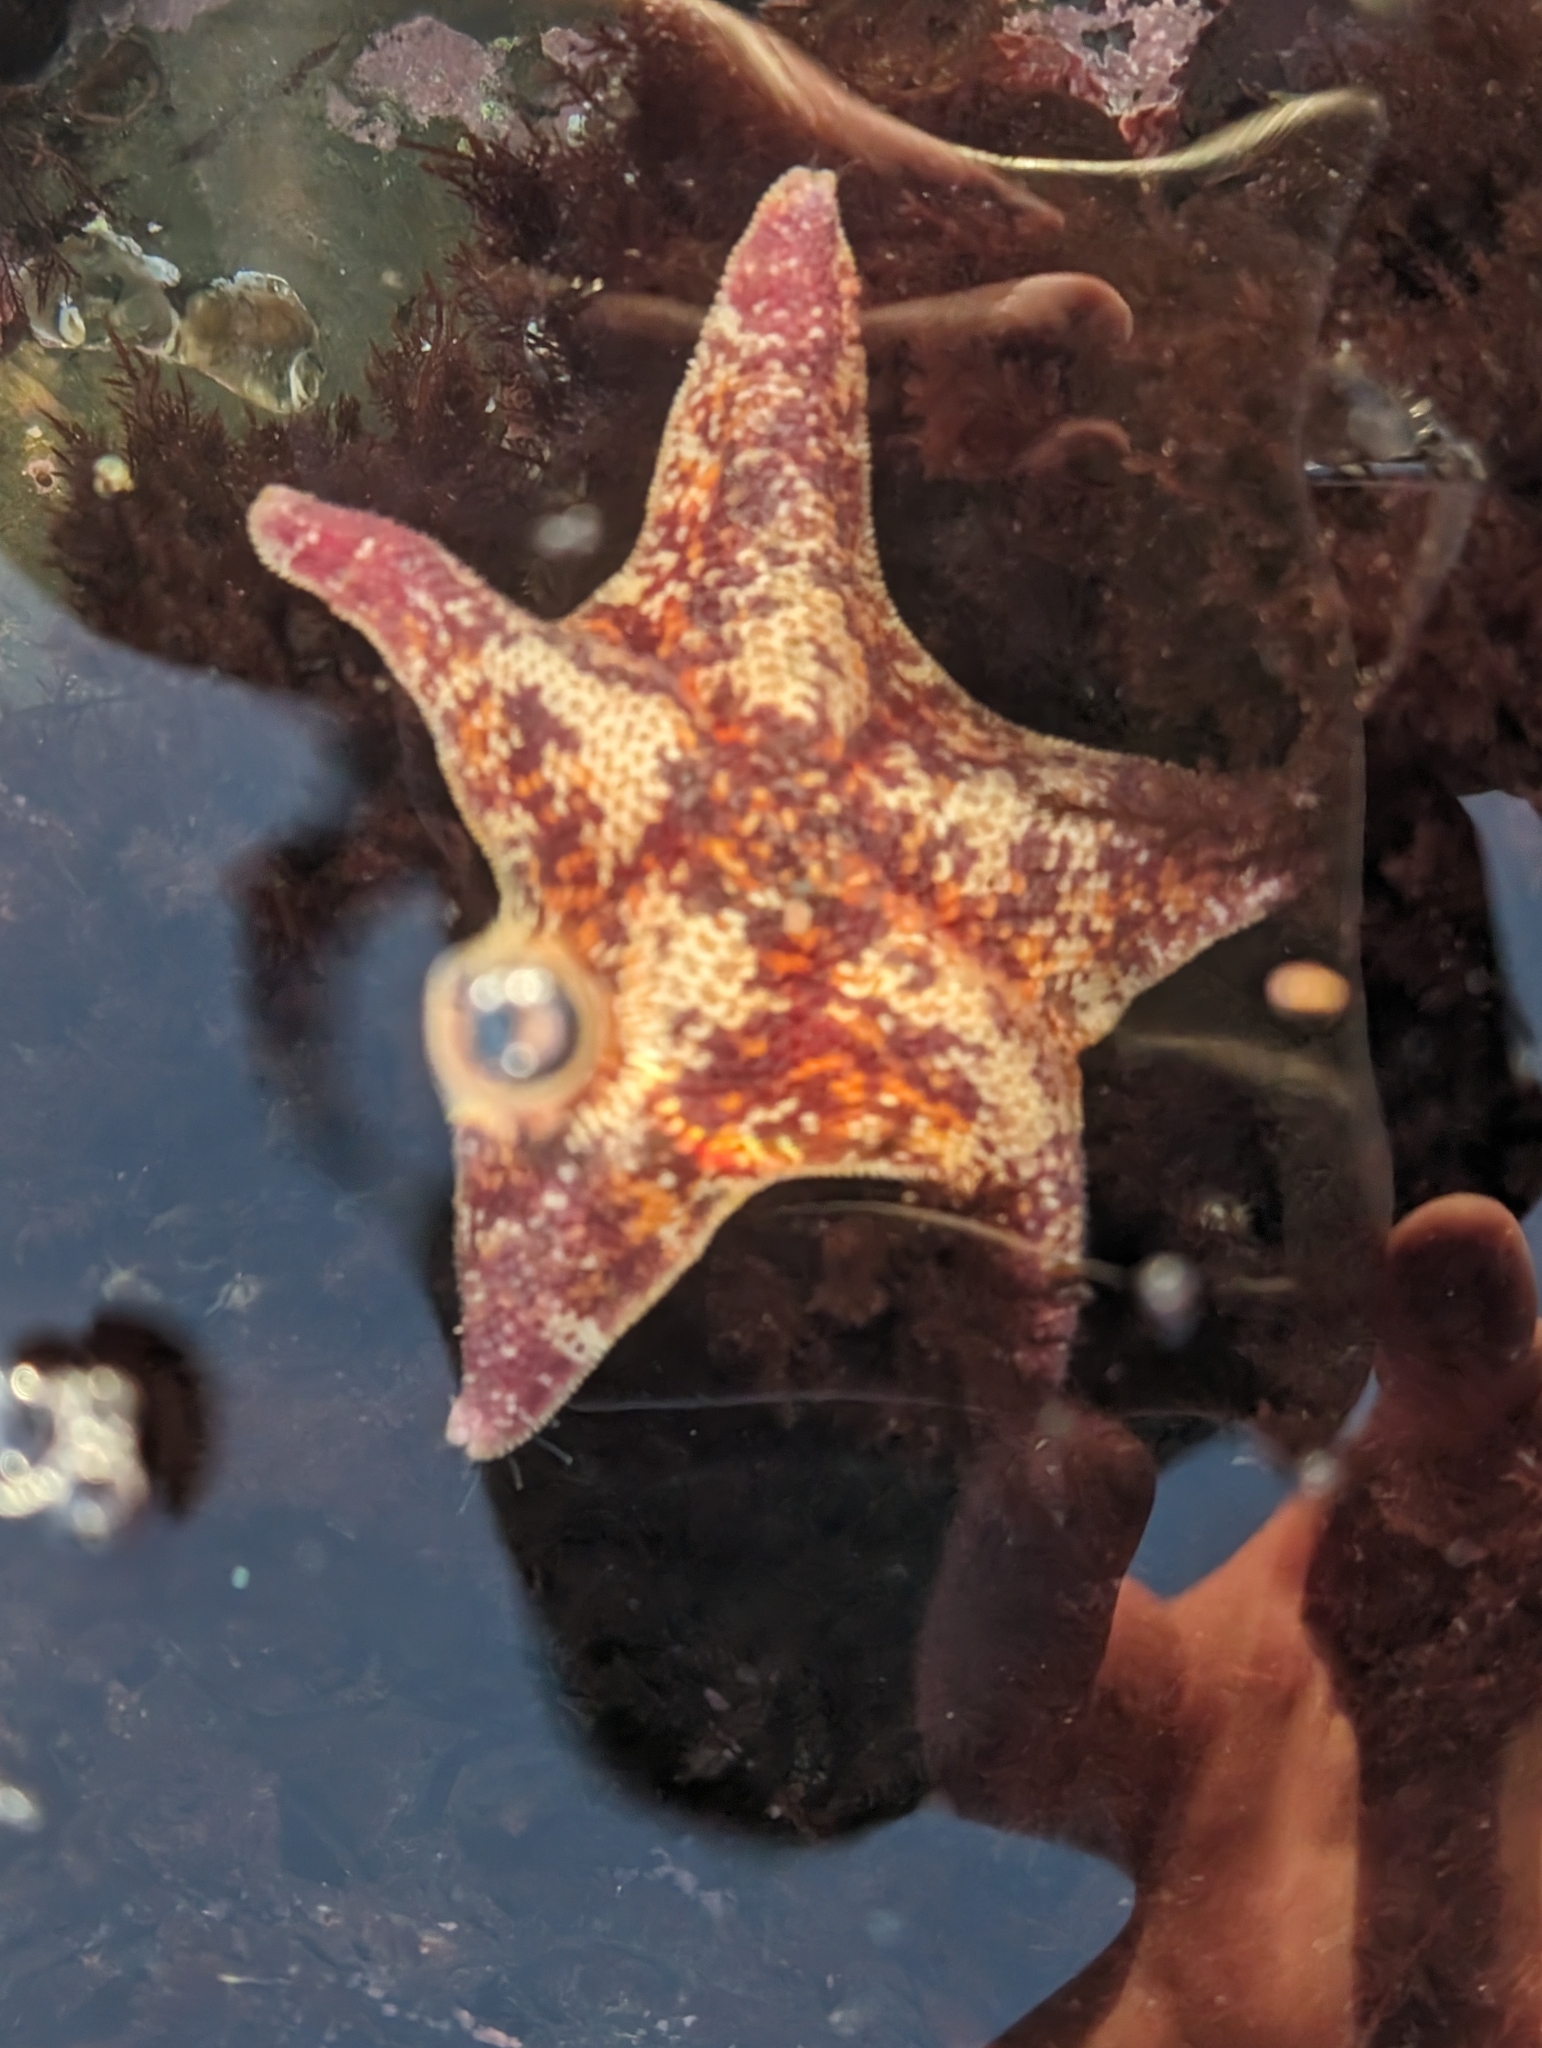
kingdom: Animalia
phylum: Echinodermata
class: Asteroidea
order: Valvatida
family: Asterinidae
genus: Patiria
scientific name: Patiria miniata
